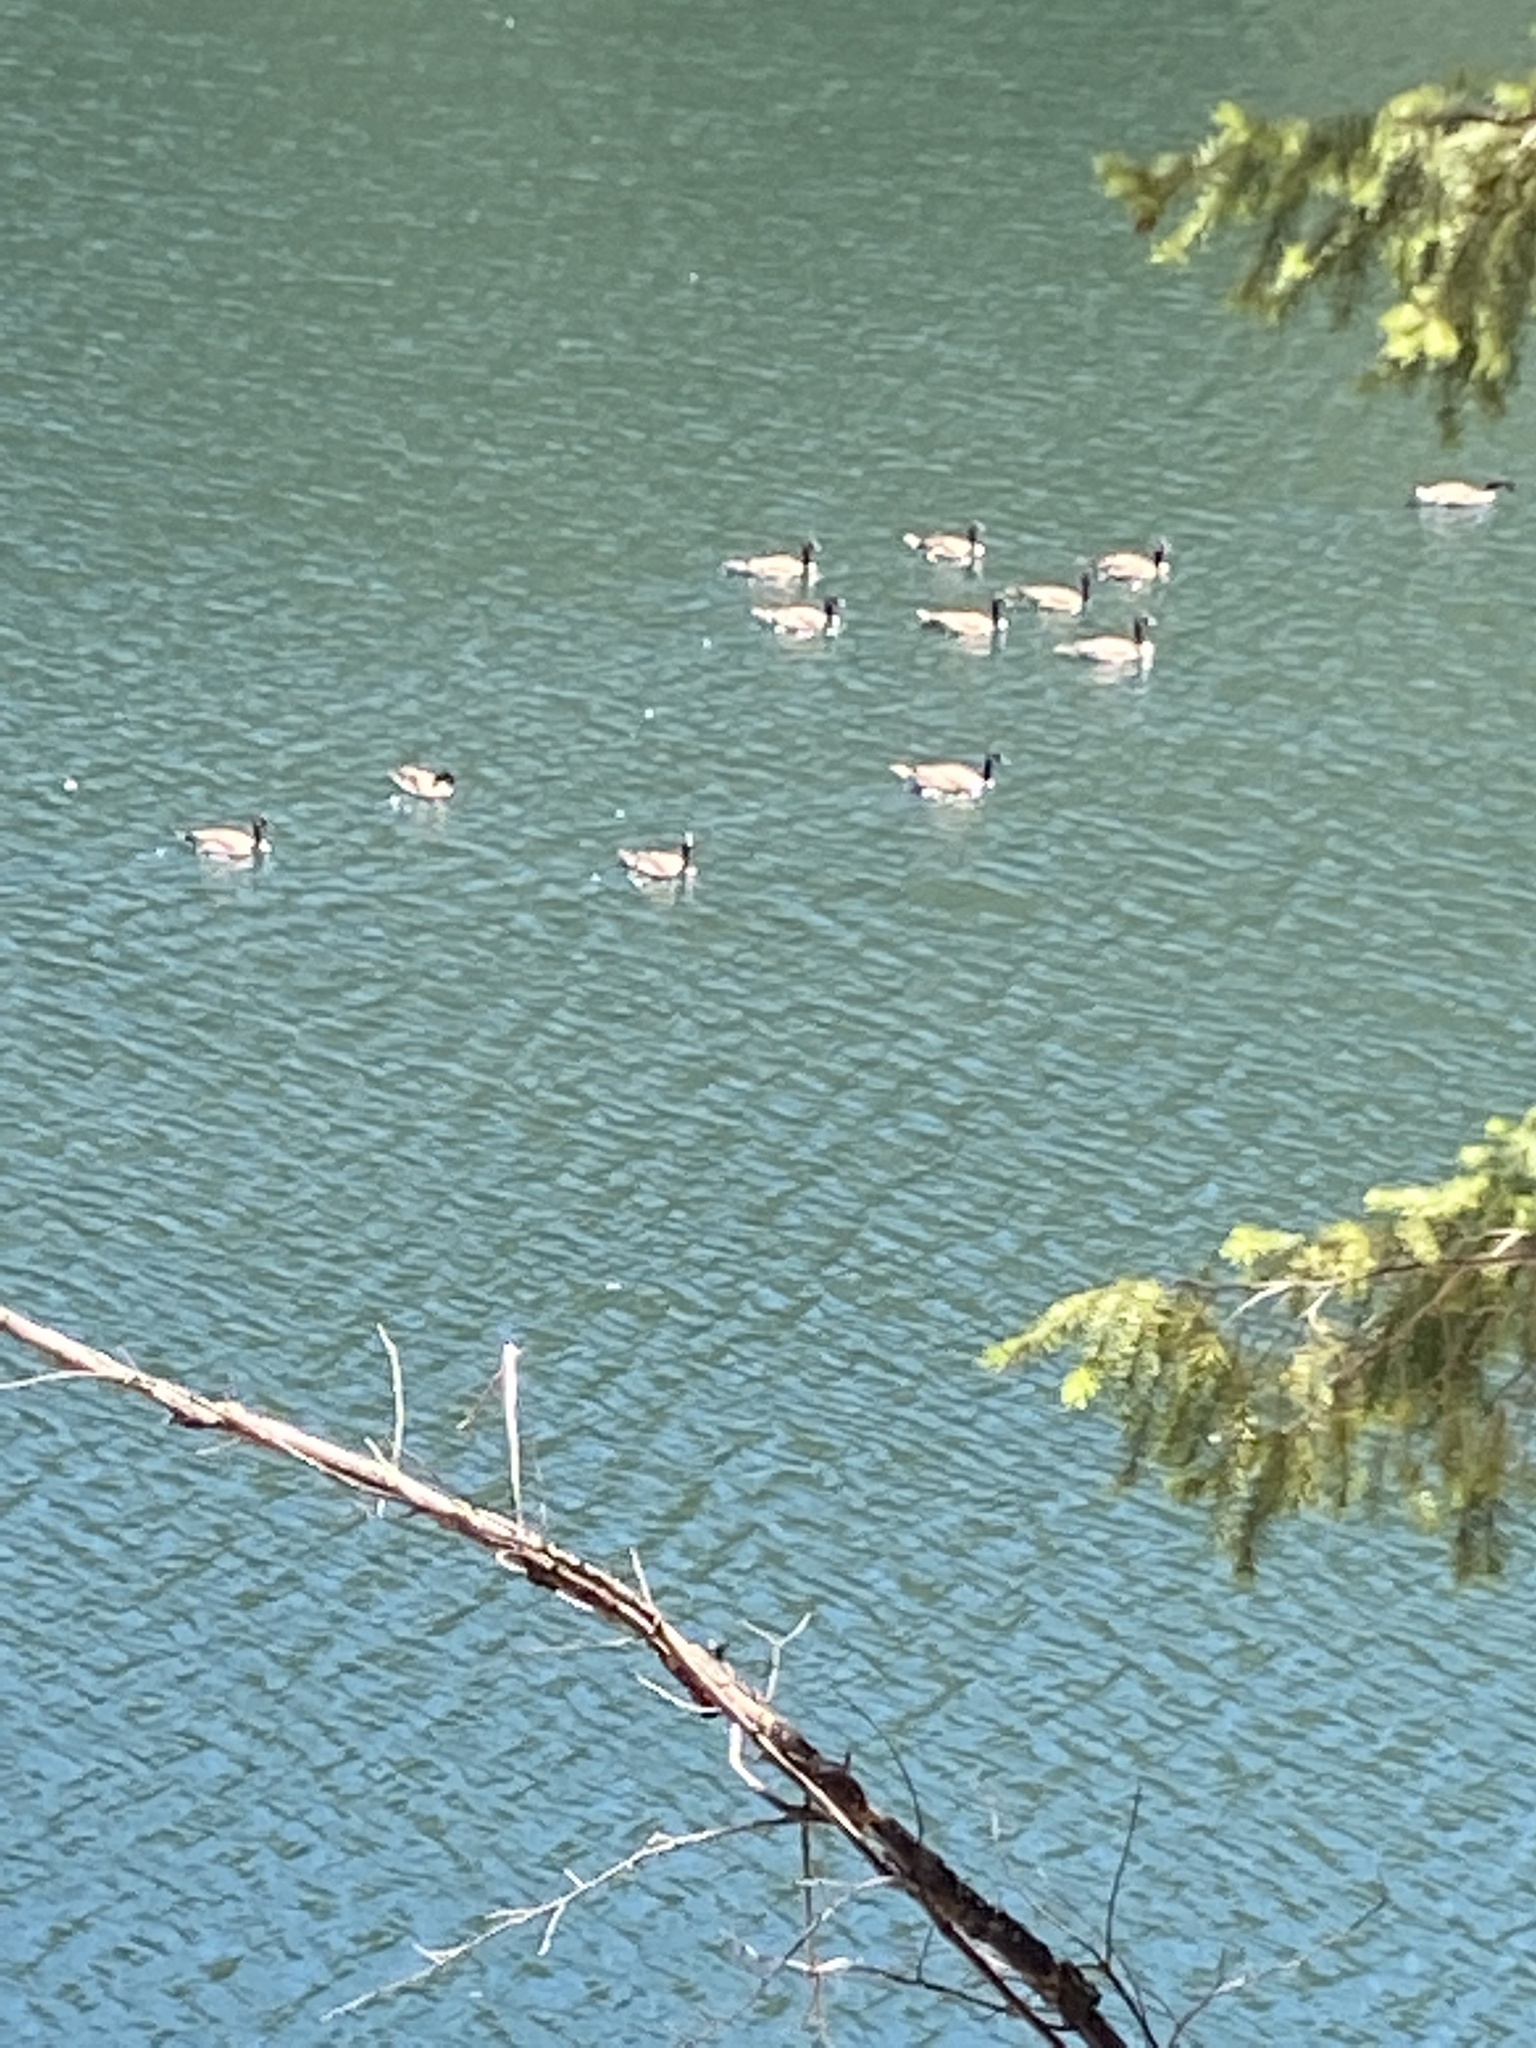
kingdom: Animalia
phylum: Chordata
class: Aves
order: Anseriformes
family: Anatidae
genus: Branta
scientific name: Branta canadensis
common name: Canada goose
